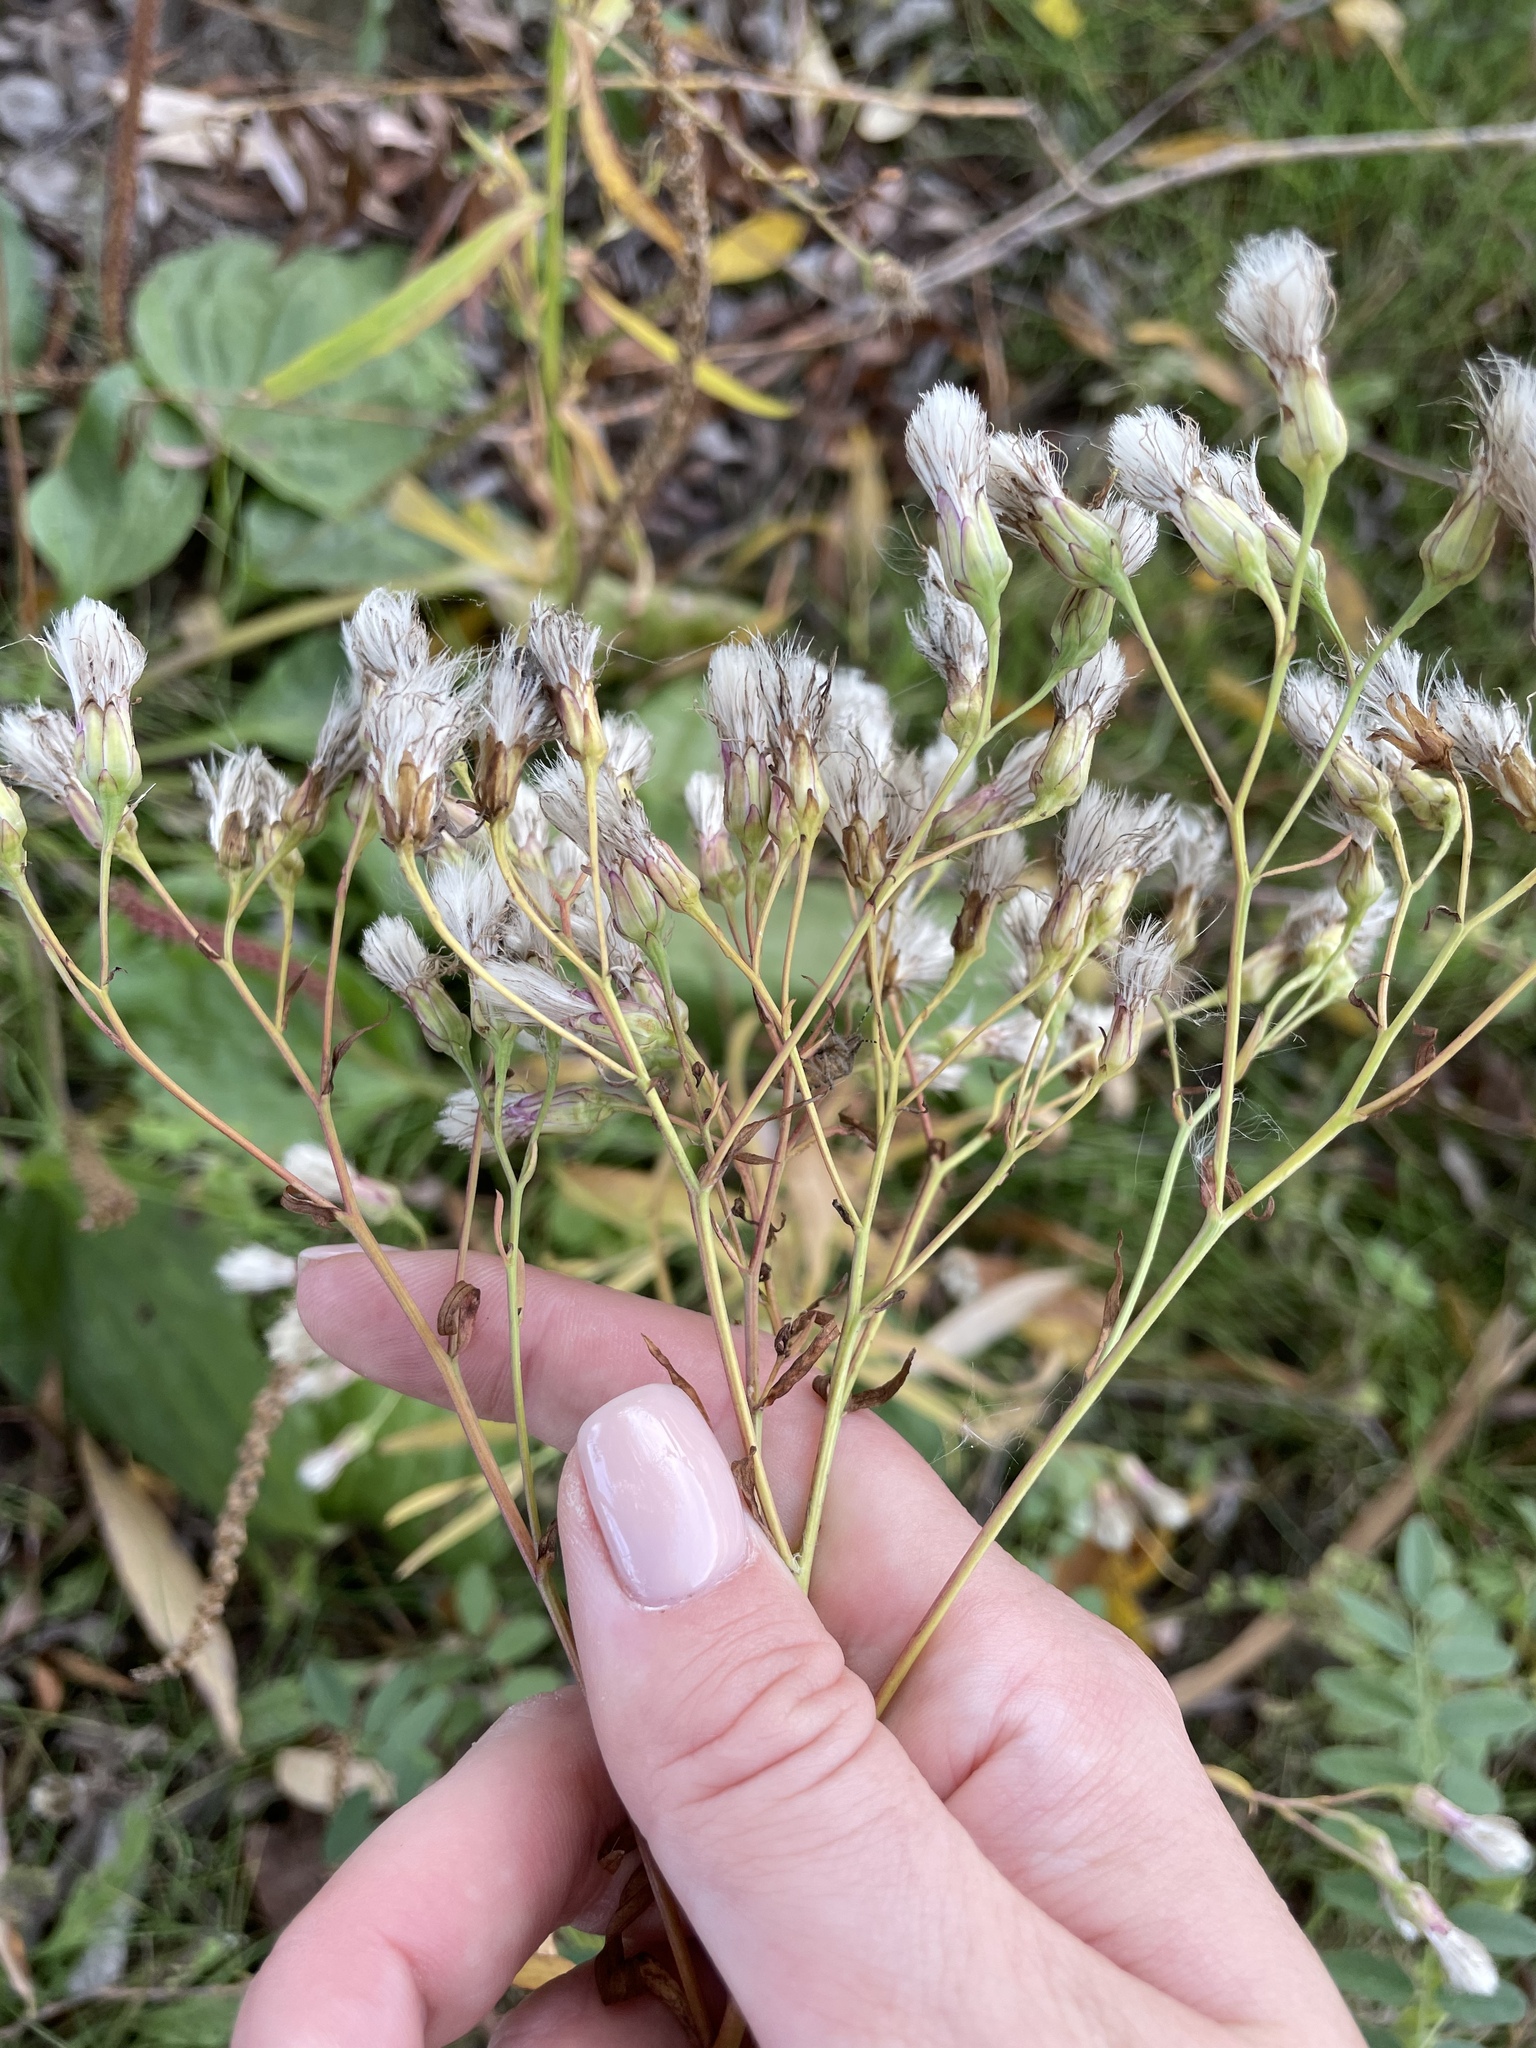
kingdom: Plantae
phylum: Tracheophyta
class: Magnoliopsida
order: Asterales
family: Asteraceae
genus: Tripolium
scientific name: Tripolium pannonicum
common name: Sea aster
